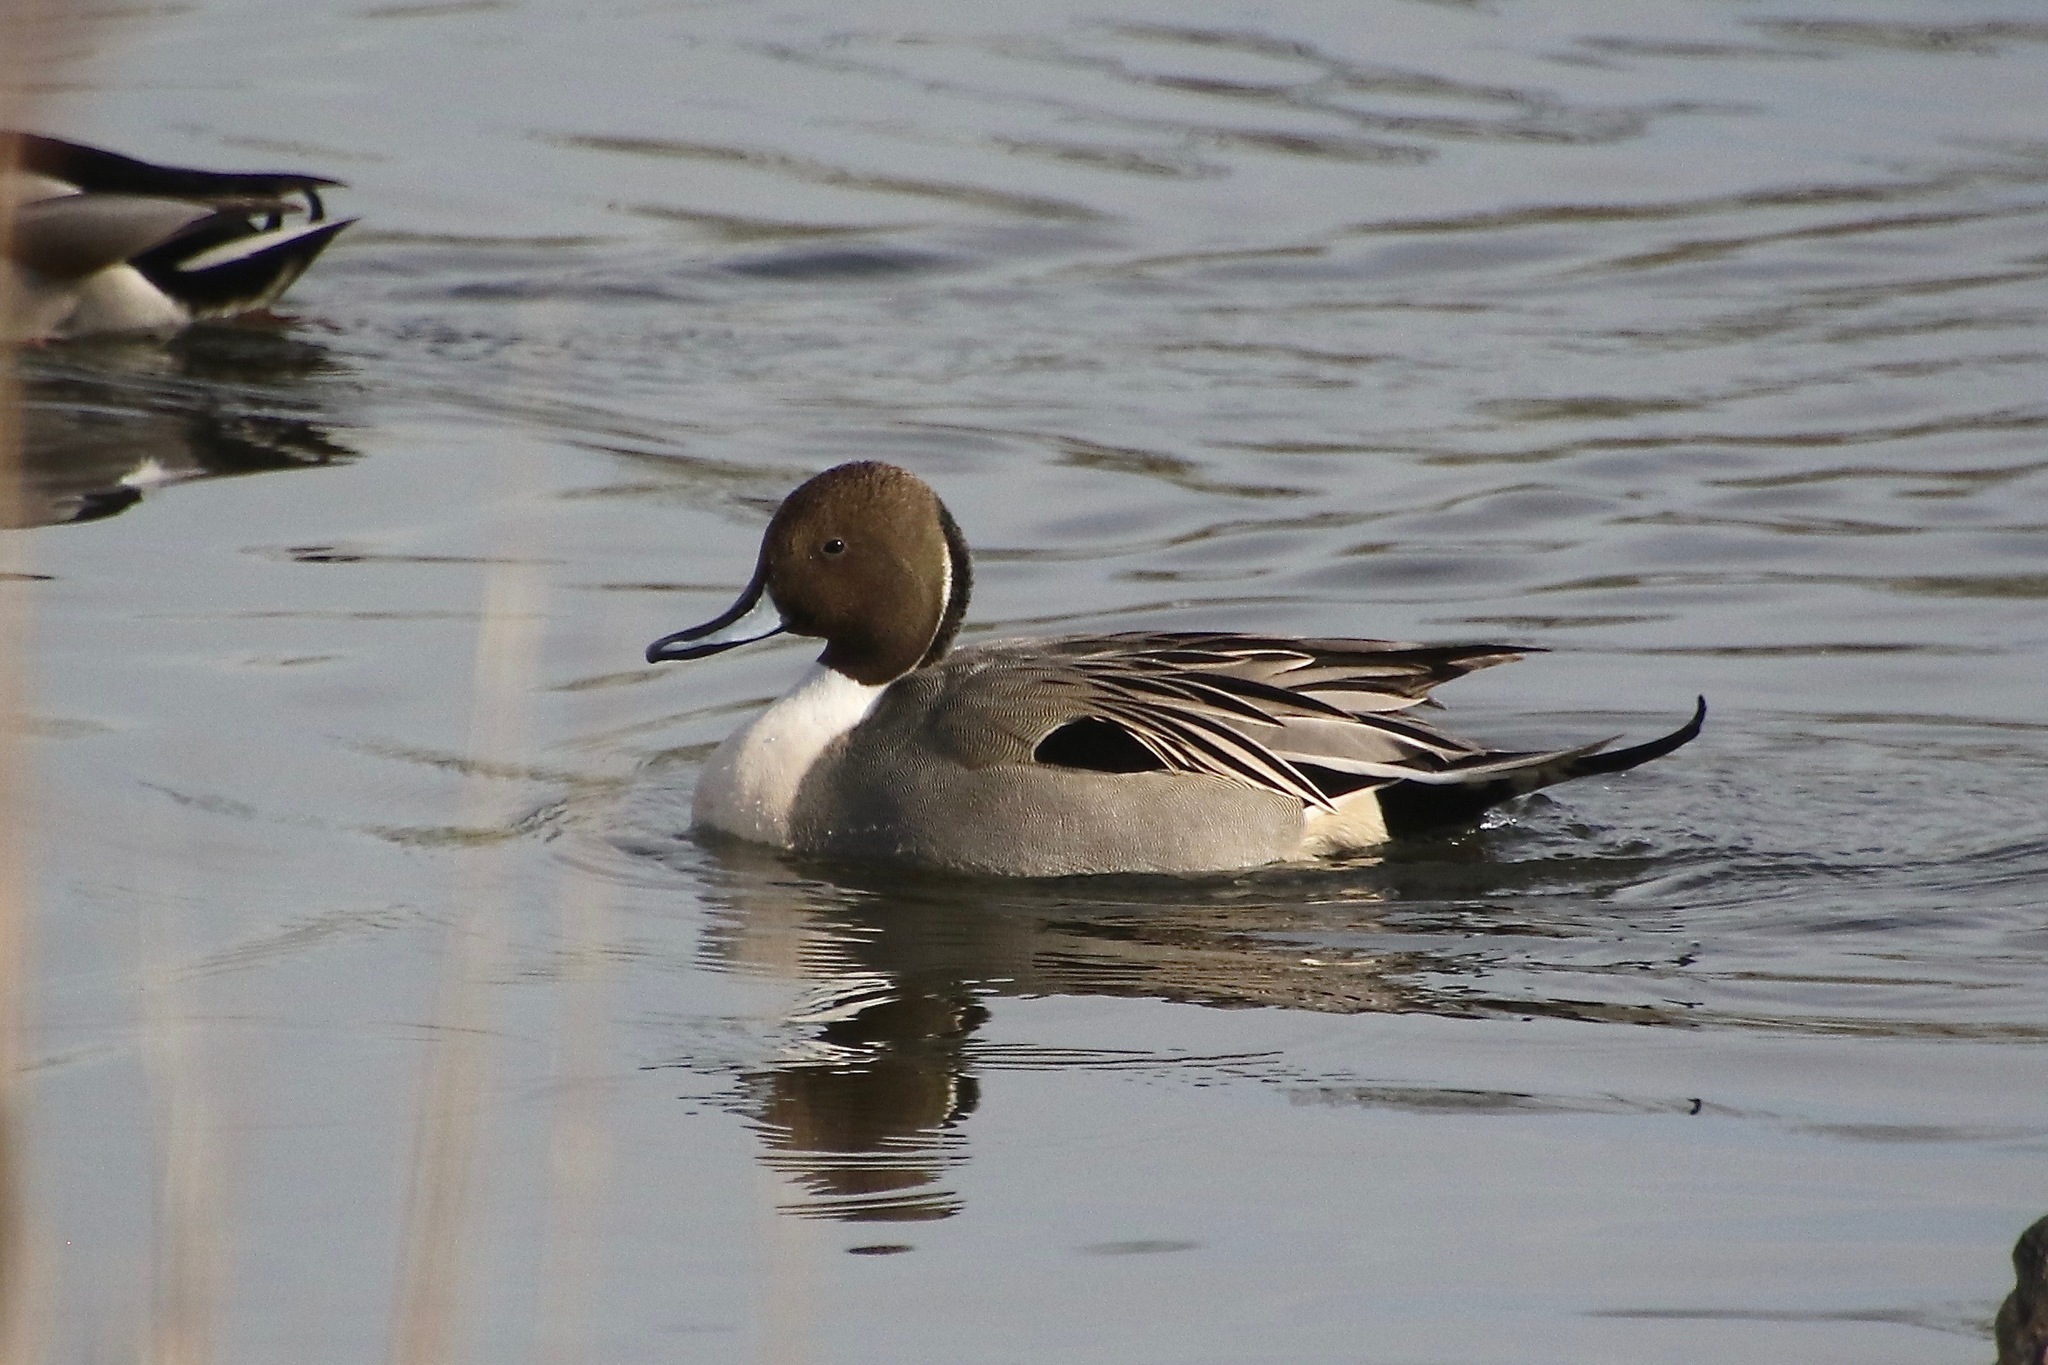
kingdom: Animalia
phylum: Chordata
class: Aves
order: Anseriformes
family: Anatidae
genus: Anas
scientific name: Anas acuta
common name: Northern pintail
